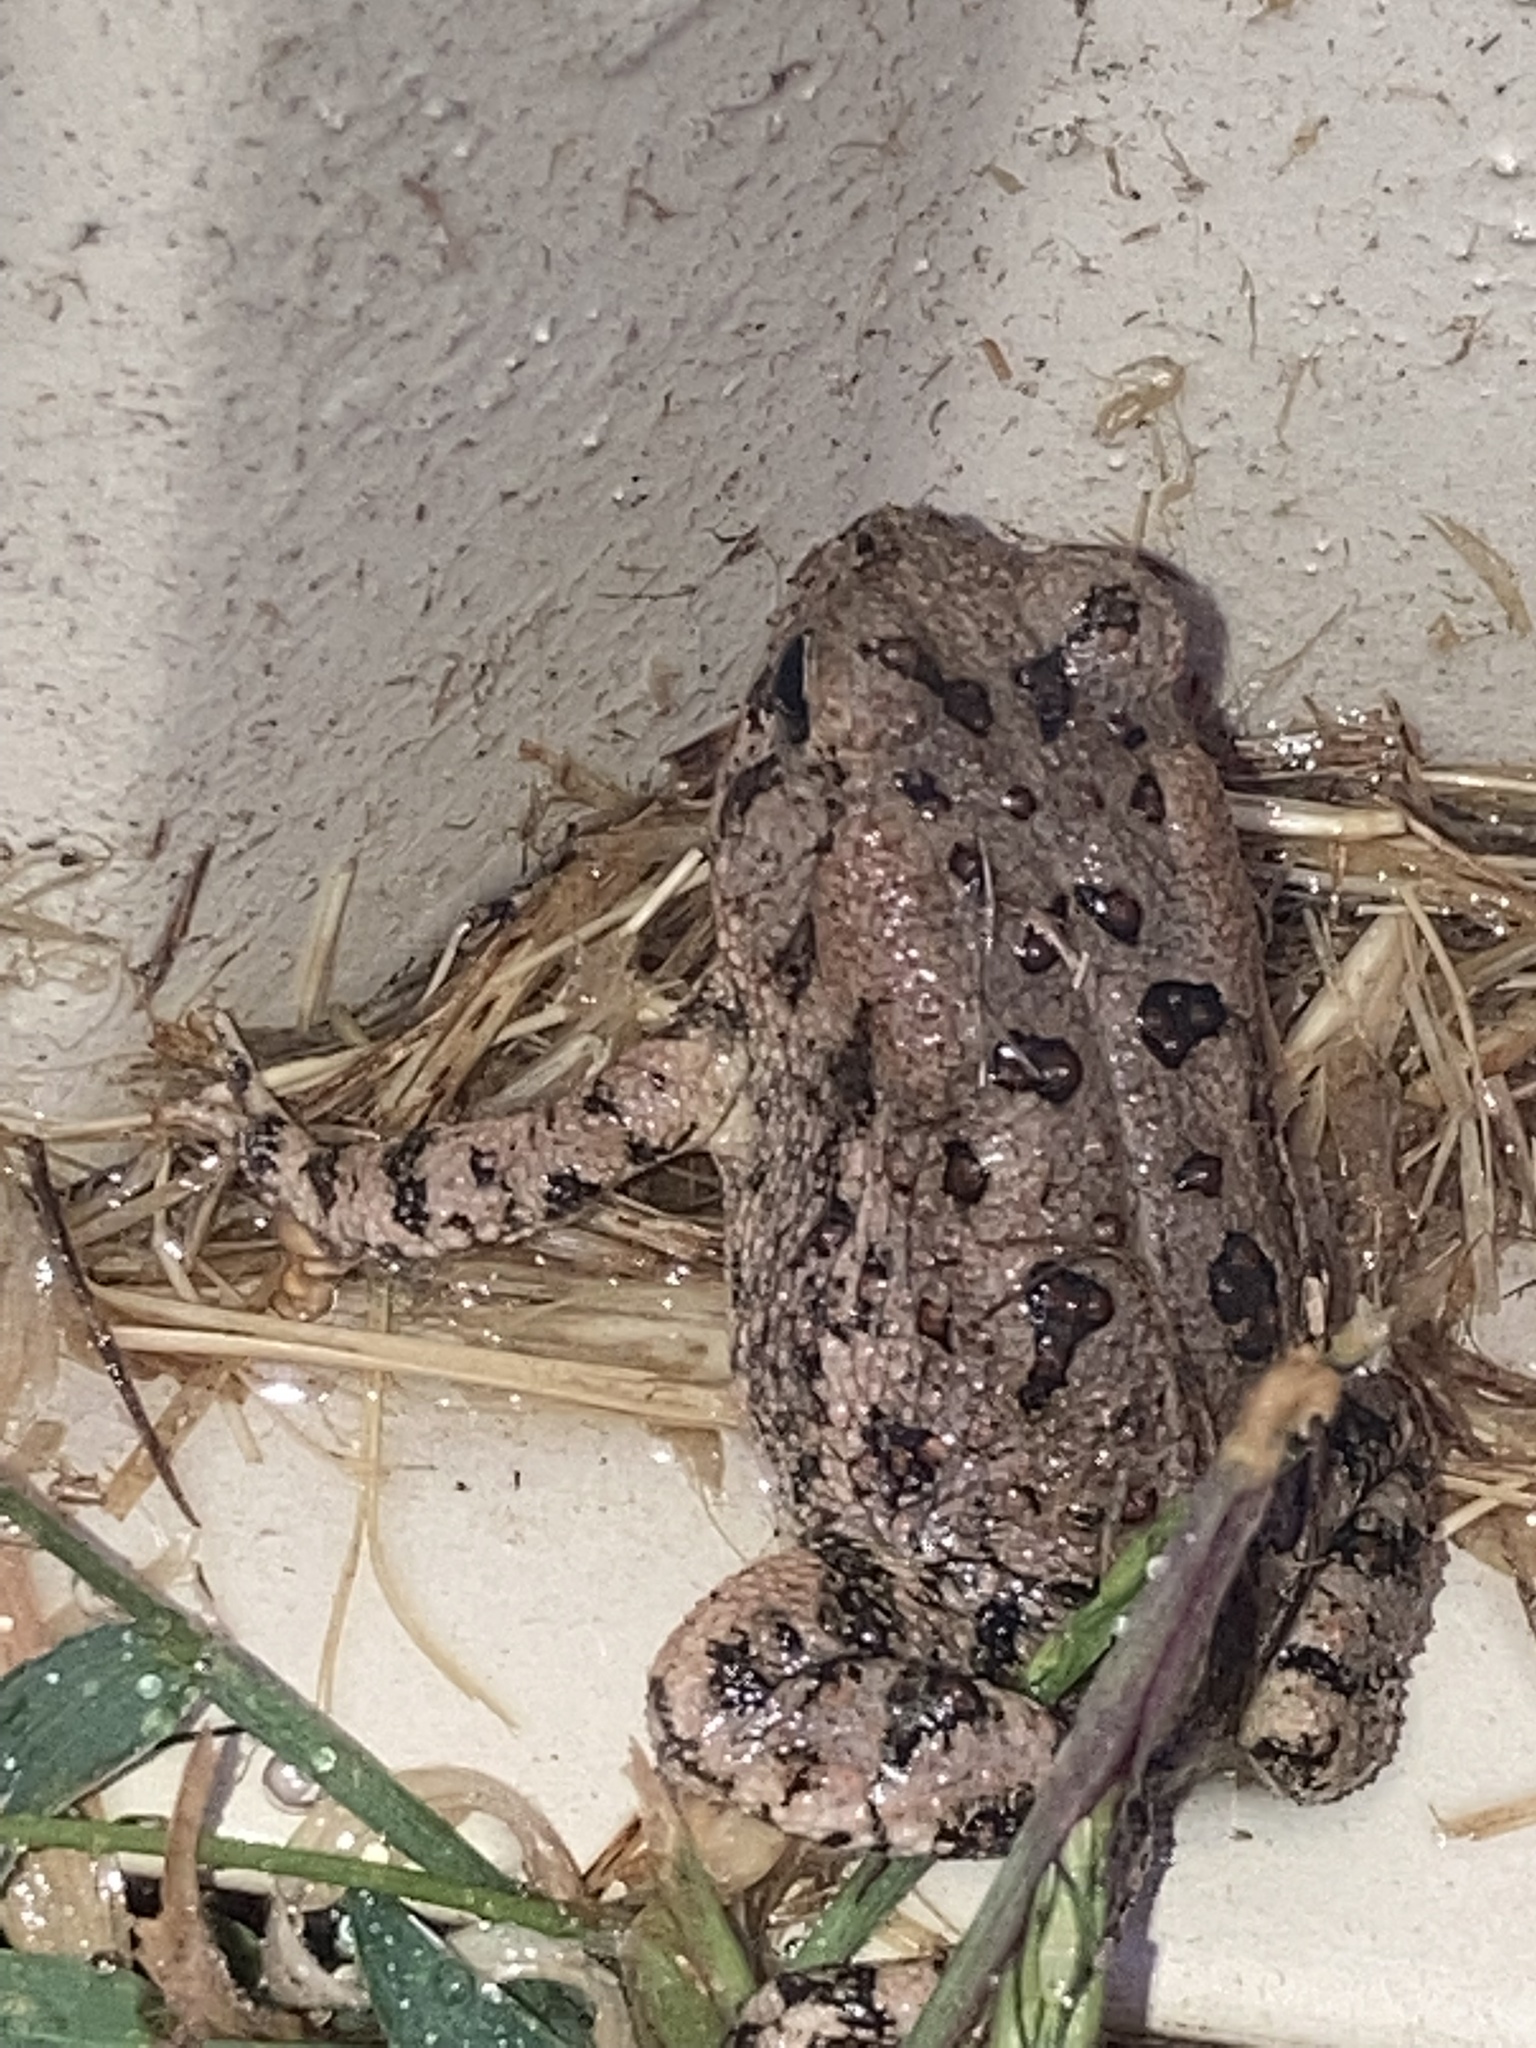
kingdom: Animalia
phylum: Chordata
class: Amphibia
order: Anura
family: Bufonidae
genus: Anaxyrus
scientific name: Anaxyrus fowleri
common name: Fowler's toad
